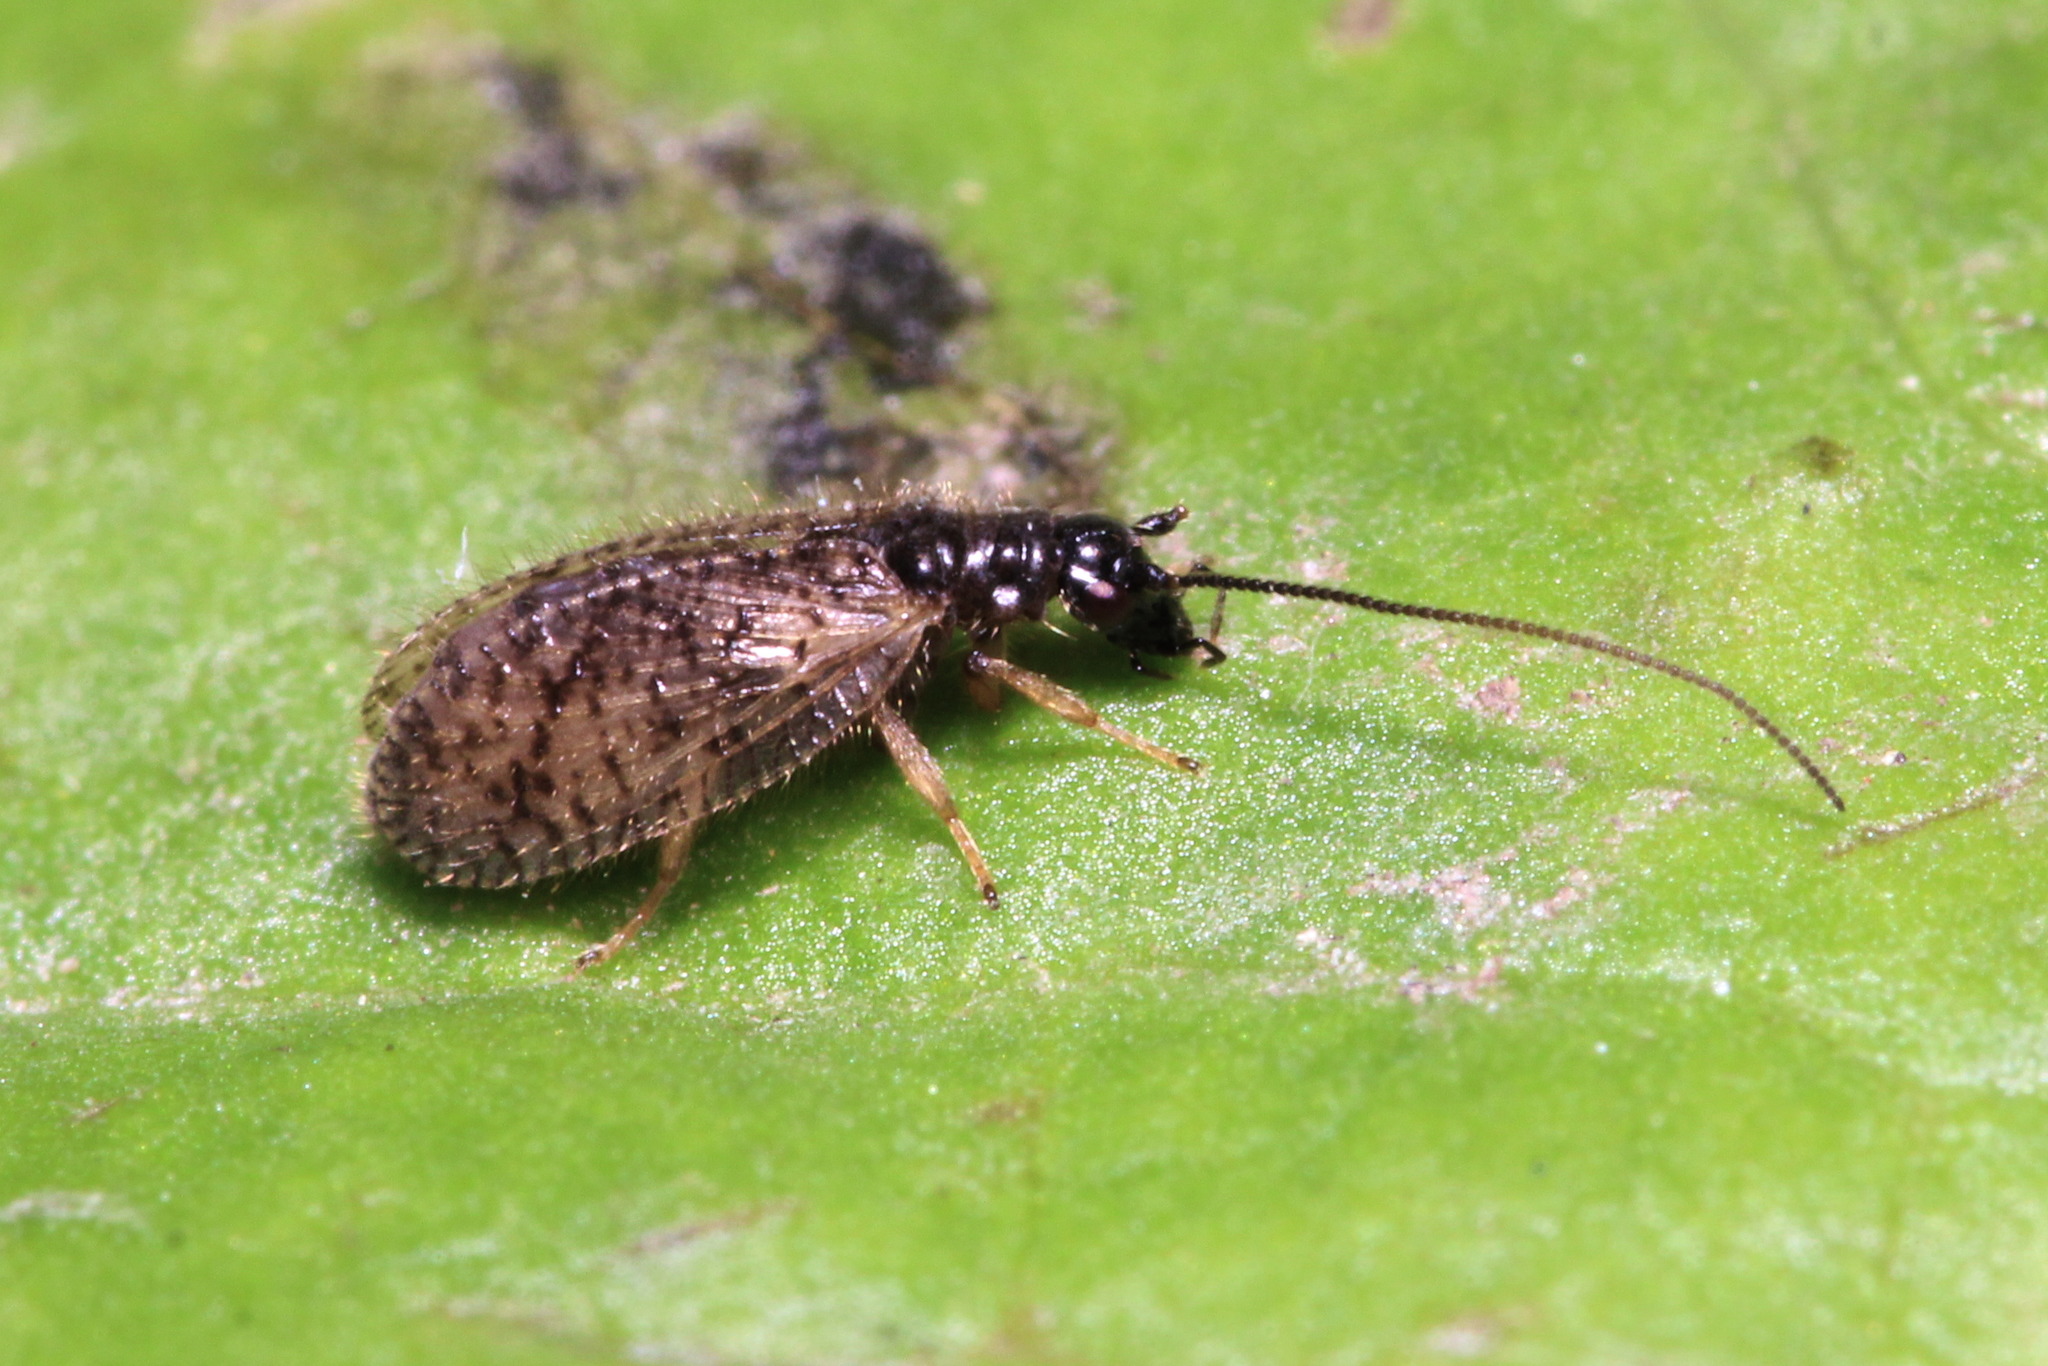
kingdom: Animalia
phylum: Arthropoda
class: Insecta
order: Neuroptera
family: Hemerobiidae
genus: Psectra
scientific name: Psectra diptera
